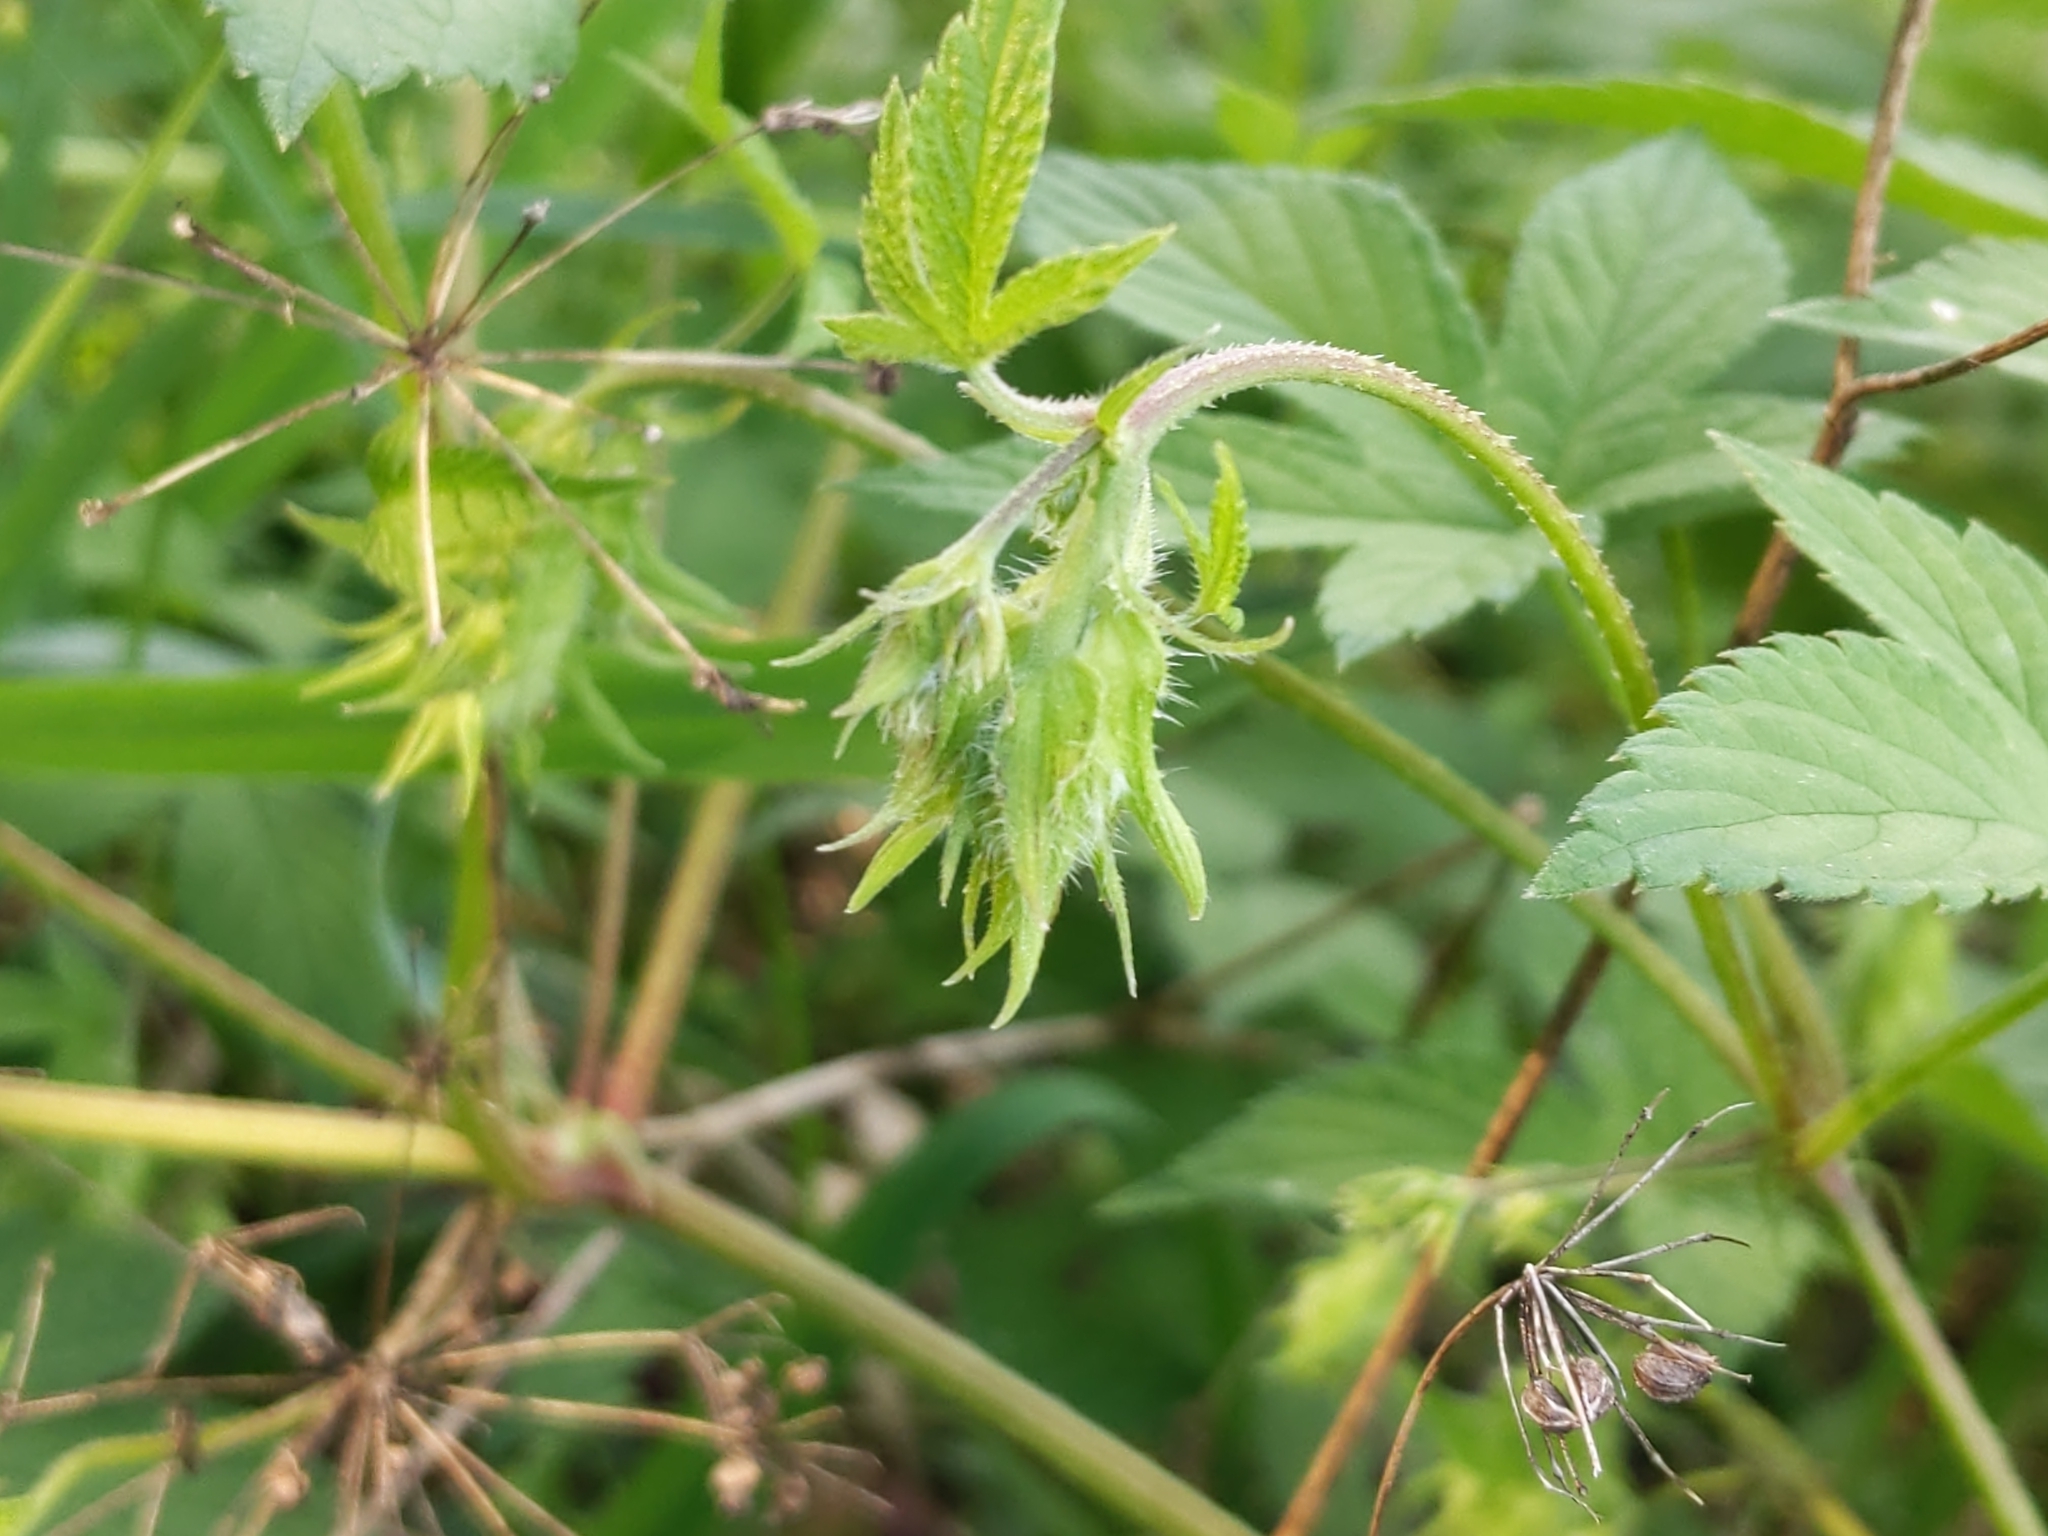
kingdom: Plantae
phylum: Tracheophyta
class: Magnoliopsida
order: Rosales
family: Cannabaceae
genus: Humulus
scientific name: Humulus scandens
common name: Japanese hop
